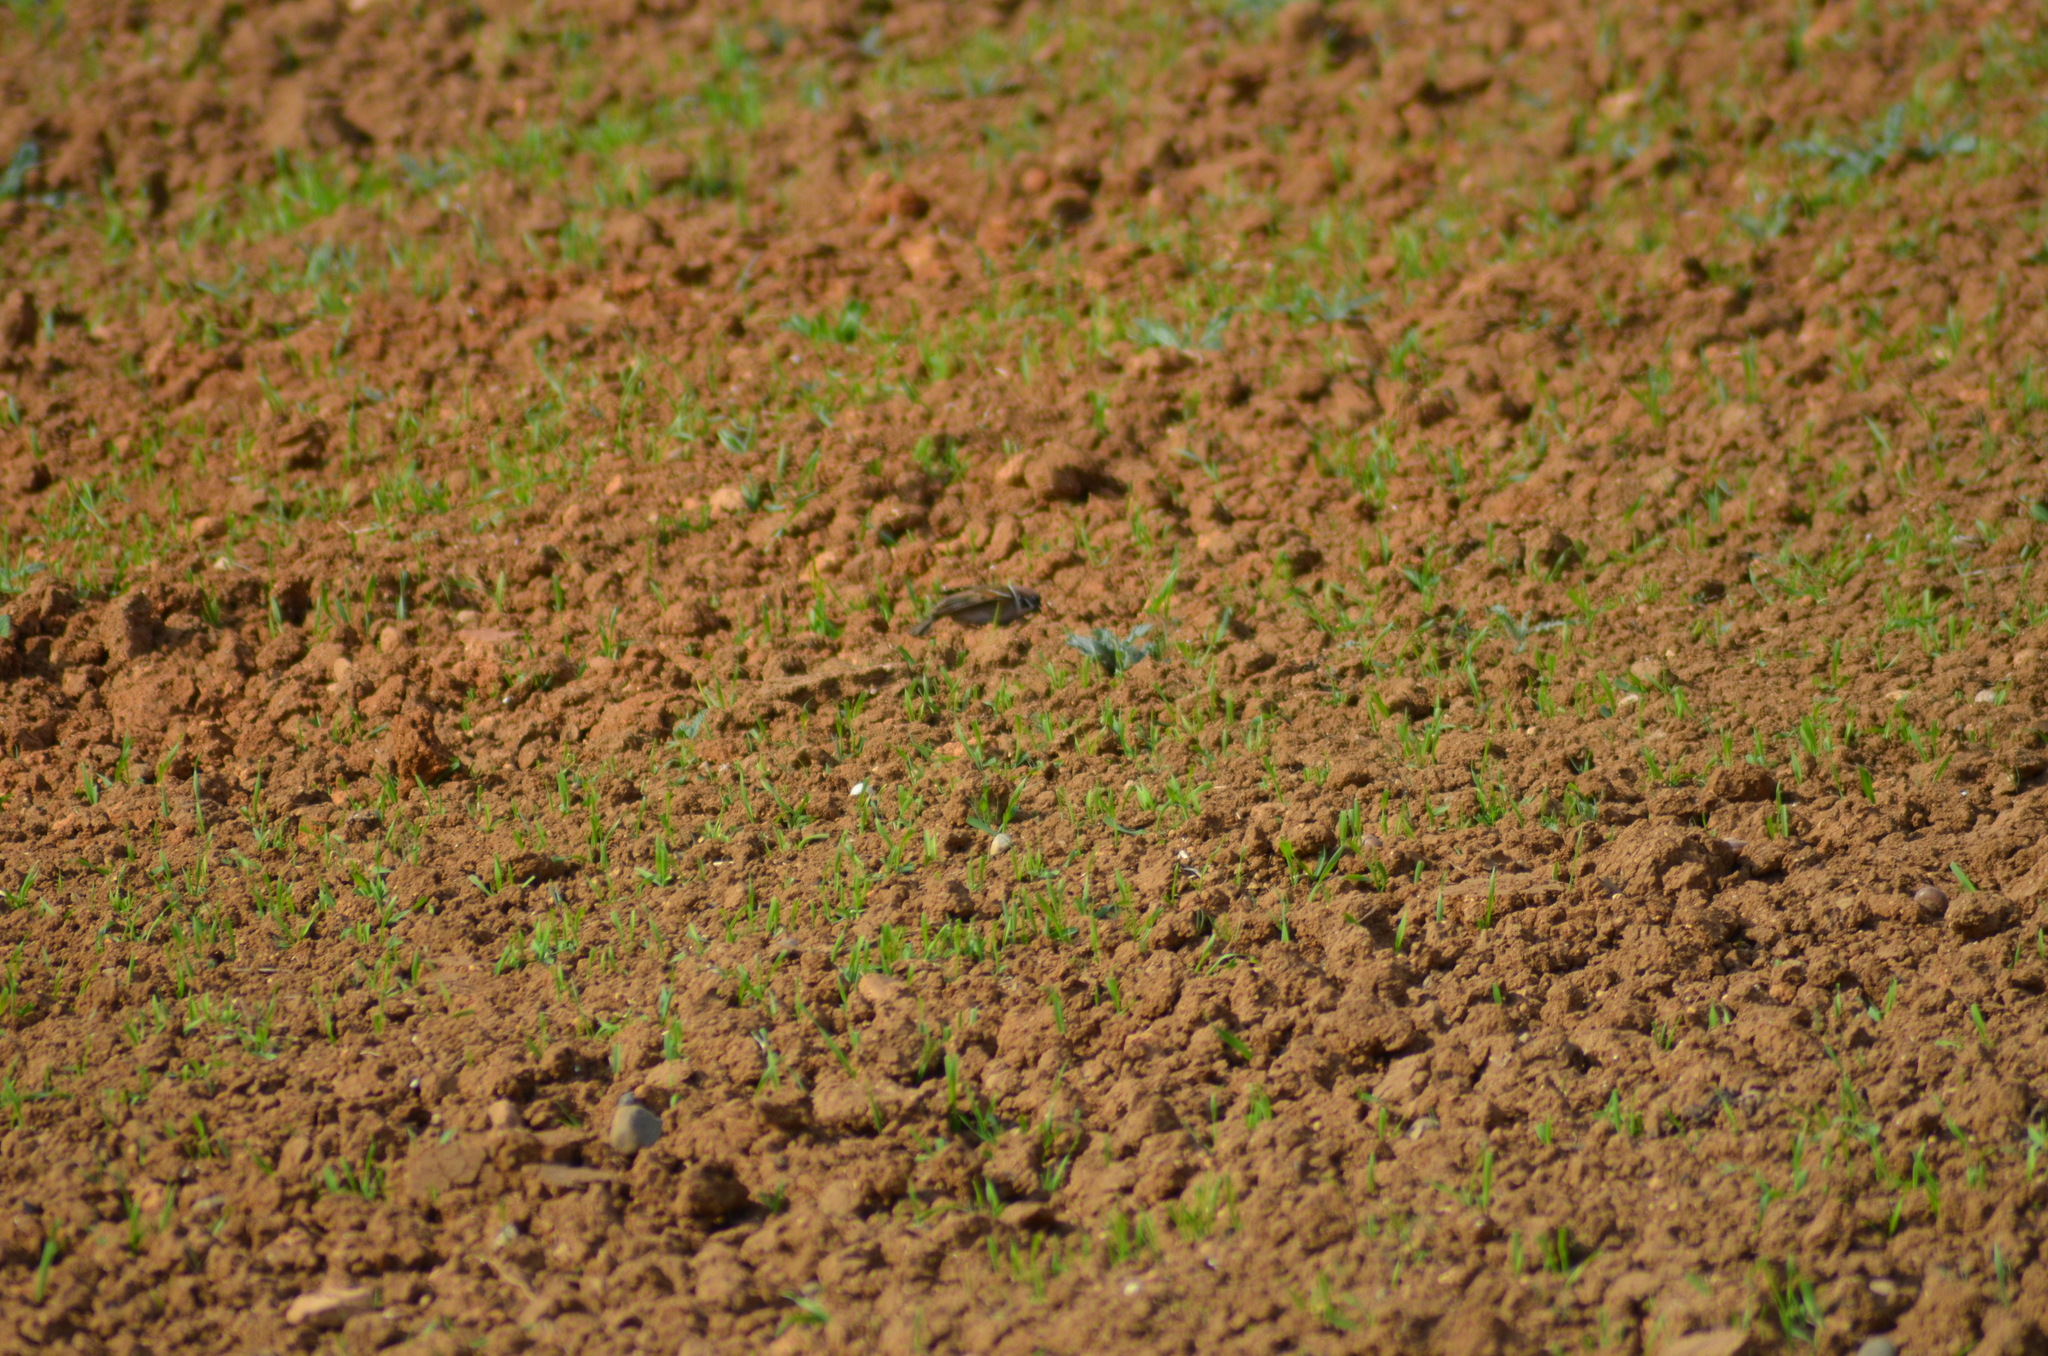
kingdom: Animalia
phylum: Chordata
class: Aves
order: Passeriformes
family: Passeridae
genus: Passer
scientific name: Passer montanus
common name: Eurasian tree sparrow
